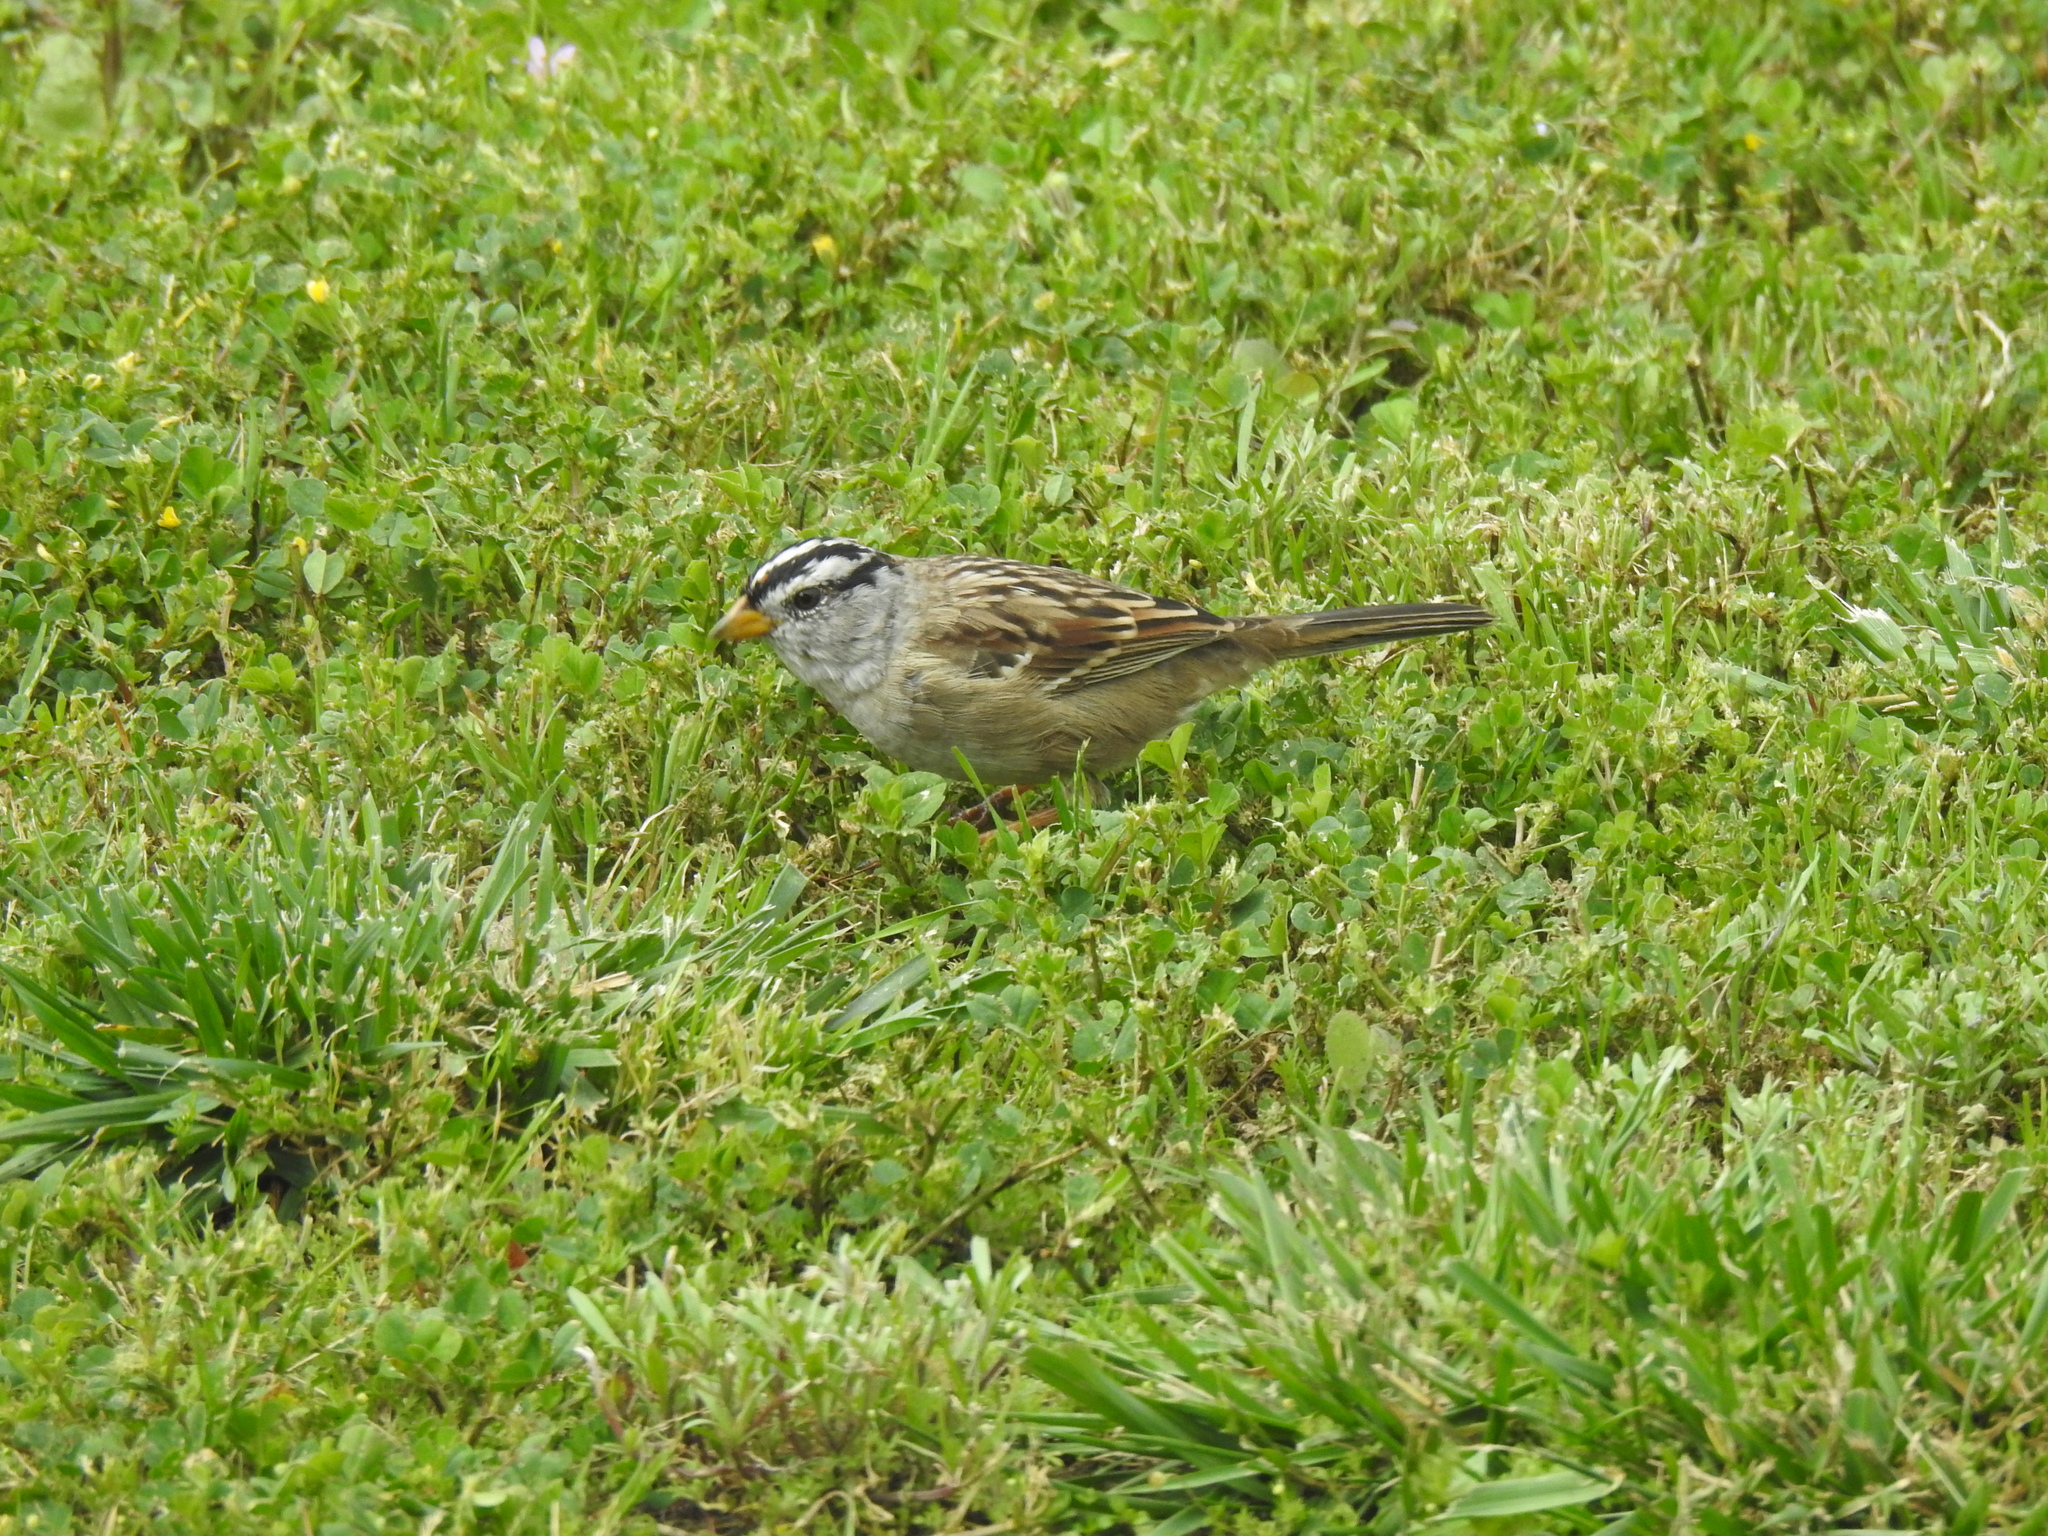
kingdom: Animalia
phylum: Chordata
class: Aves
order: Passeriformes
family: Passerellidae
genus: Zonotrichia
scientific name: Zonotrichia leucophrys
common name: White-crowned sparrow
